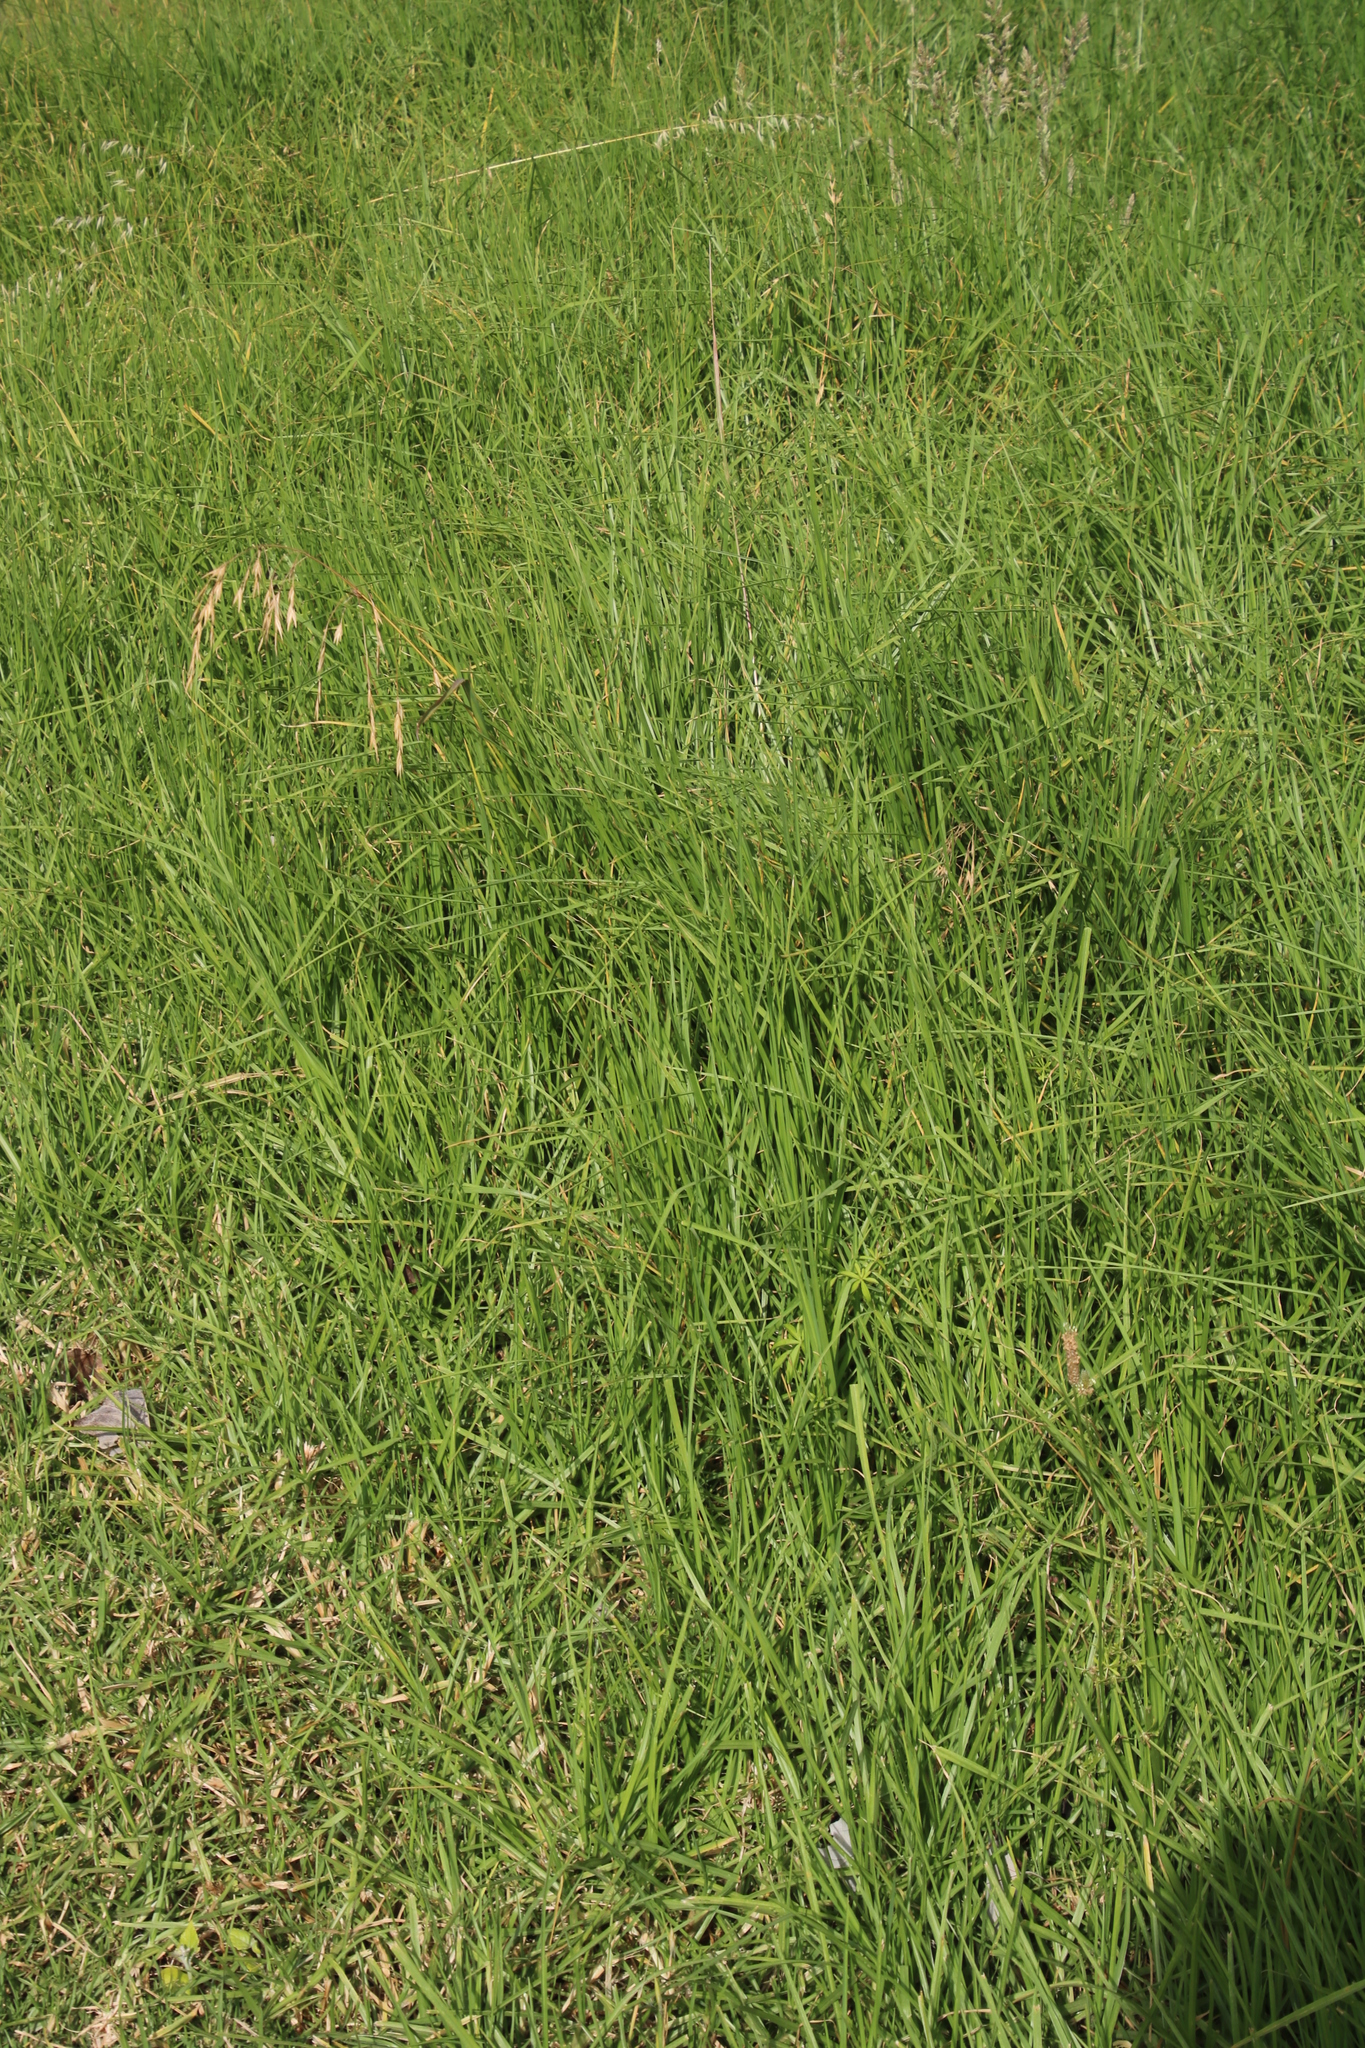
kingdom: Plantae
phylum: Tracheophyta
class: Liliopsida
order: Poales
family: Poaceae
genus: Cenchrus
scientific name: Cenchrus clandestinus
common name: Kikuyugrass
